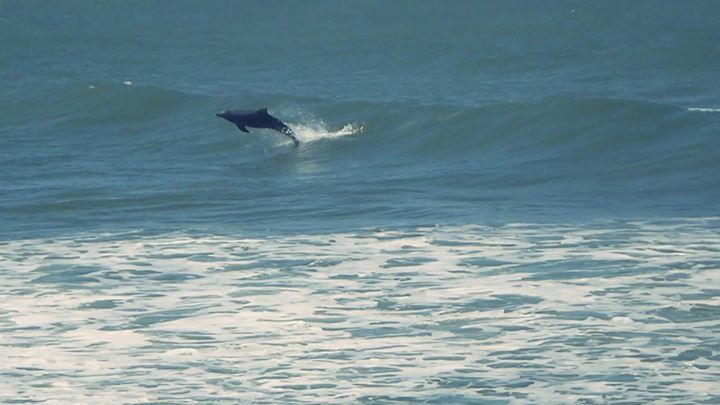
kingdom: Animalia
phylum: Chordata
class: Mammalia
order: Cetacea
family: Delphinidae
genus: Tursiops
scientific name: Tursiops truncatus
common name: Bottlenose dolphin
